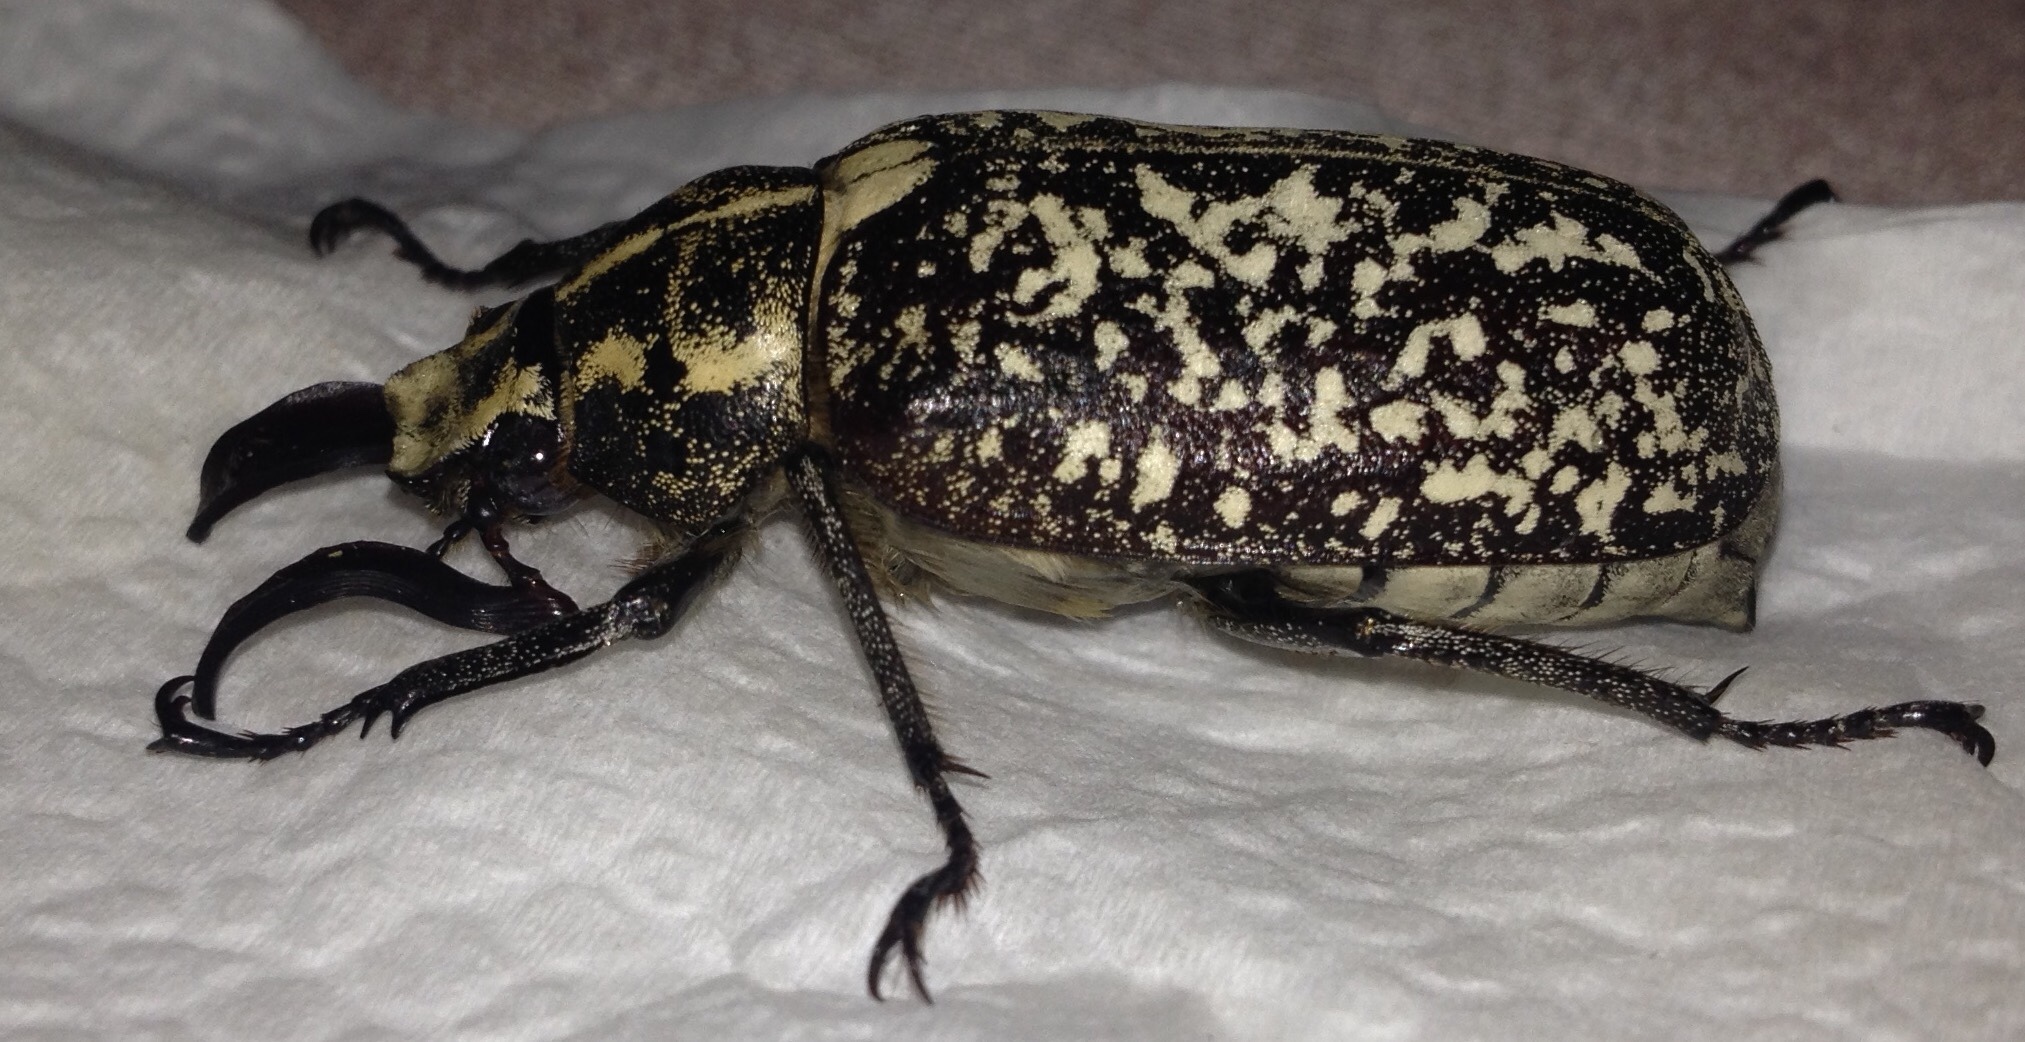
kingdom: Animalia
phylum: Arthropoda
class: Insecta
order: Coleoptera
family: Scarabaeidae
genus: Polyphylla
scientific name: Polyphylla fullo
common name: Pine chafer
